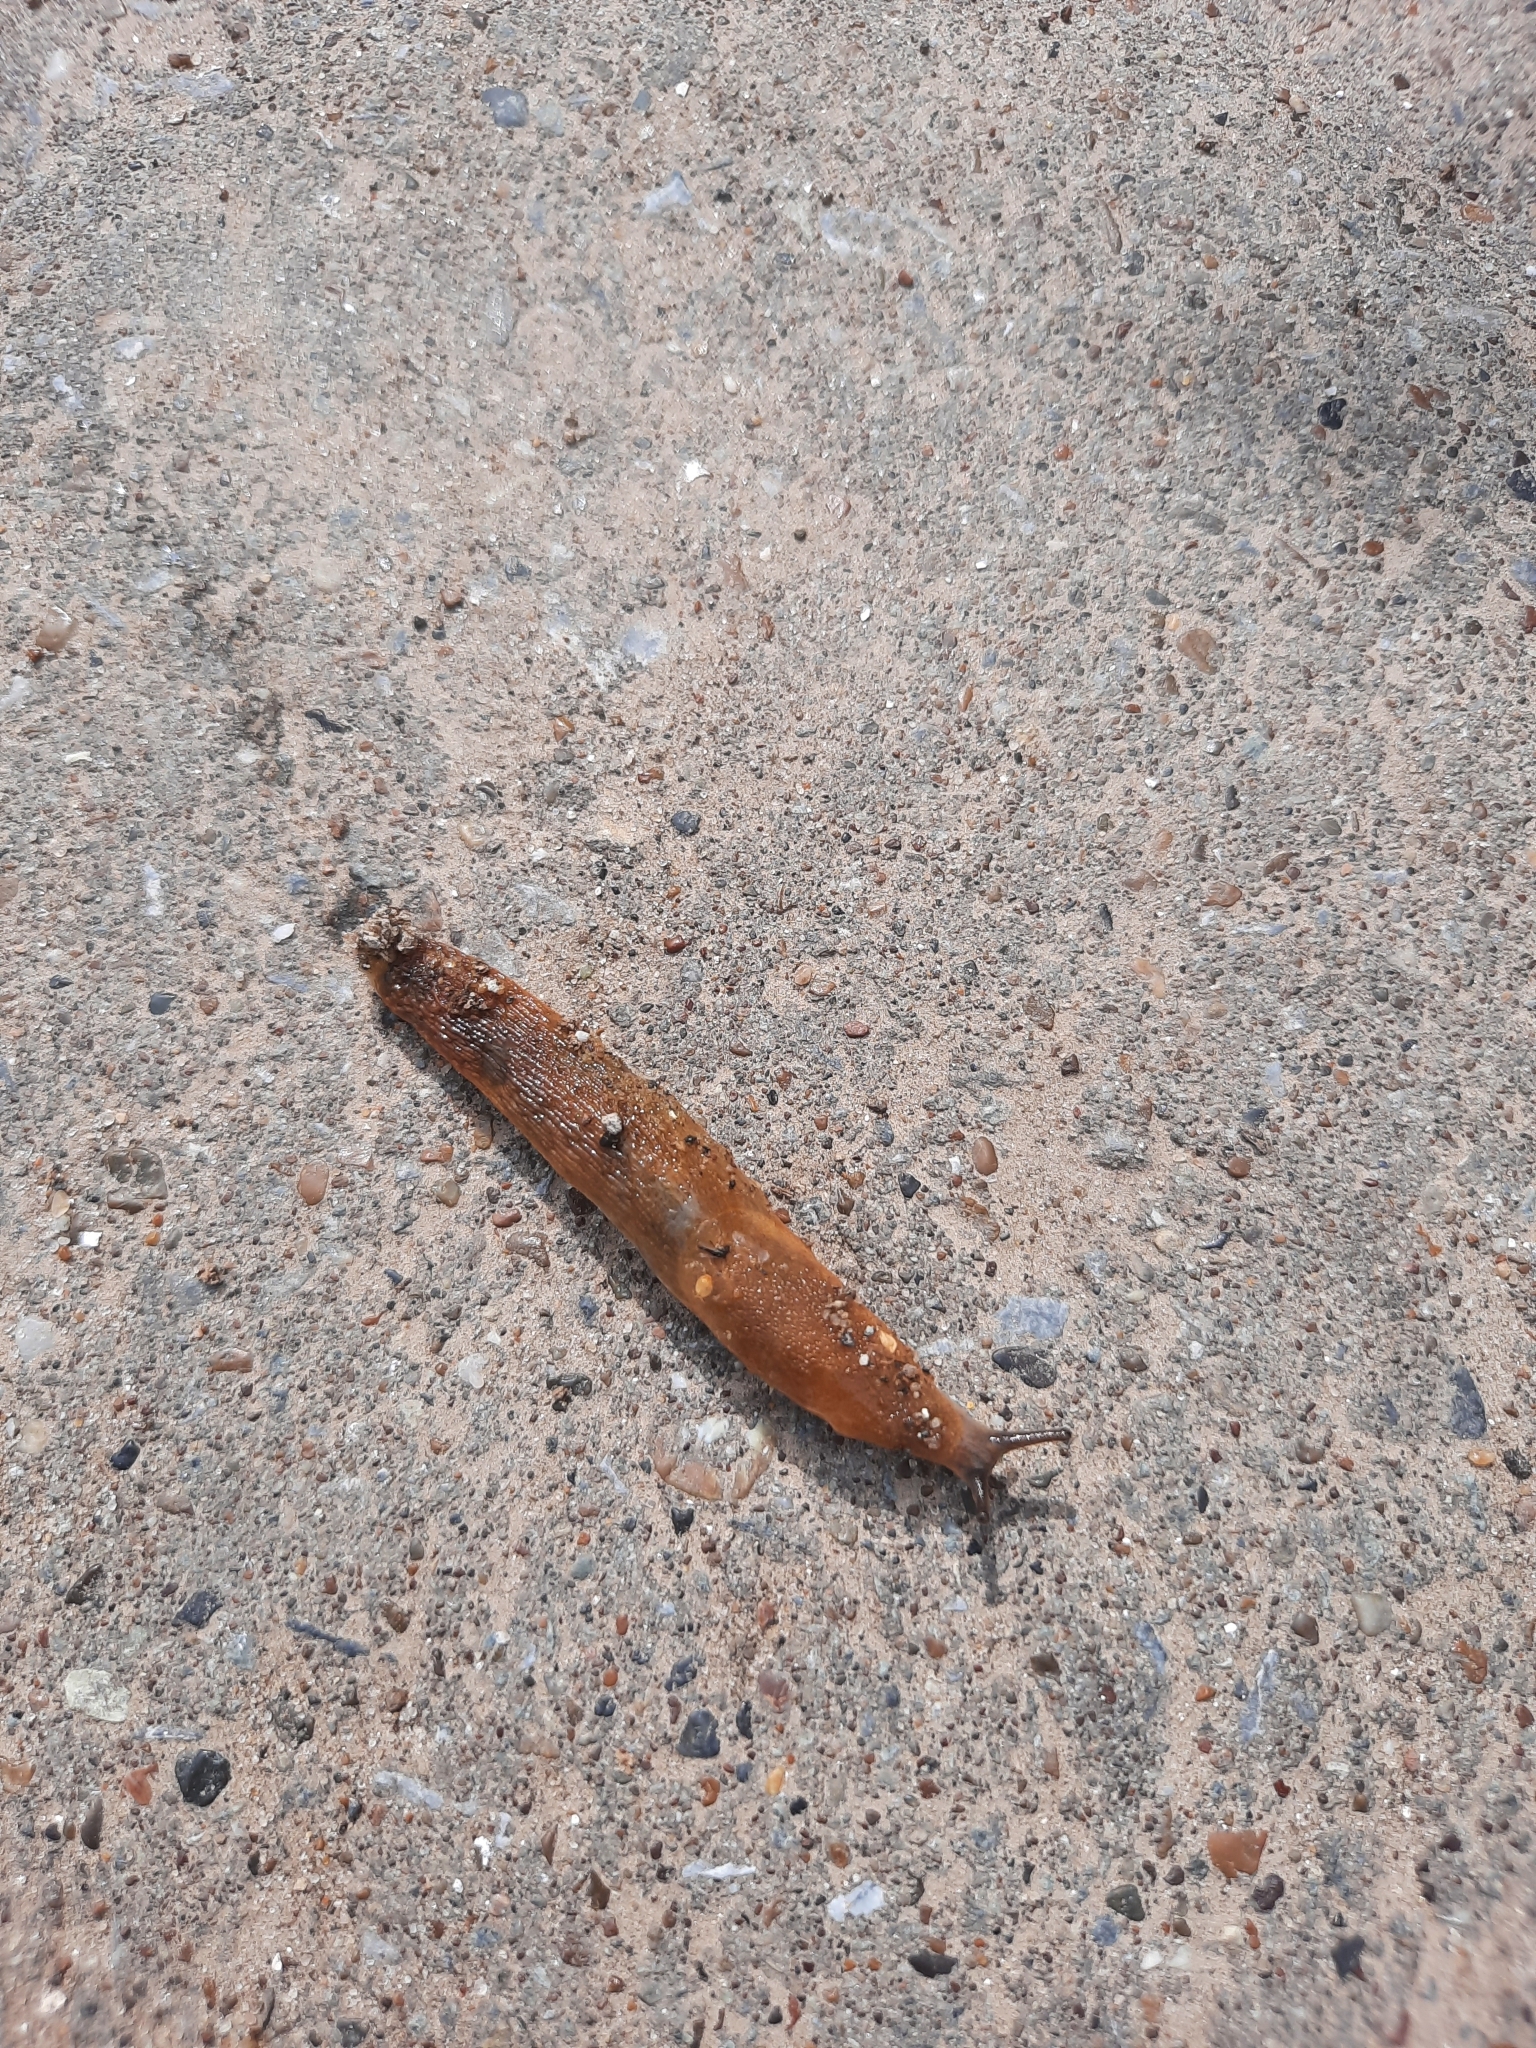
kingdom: Animalia
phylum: Mollusca
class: Gastropoda
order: Stylommatophora
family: Arionidae
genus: Arion
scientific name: Arion vulgaris
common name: Lusitanian slug
